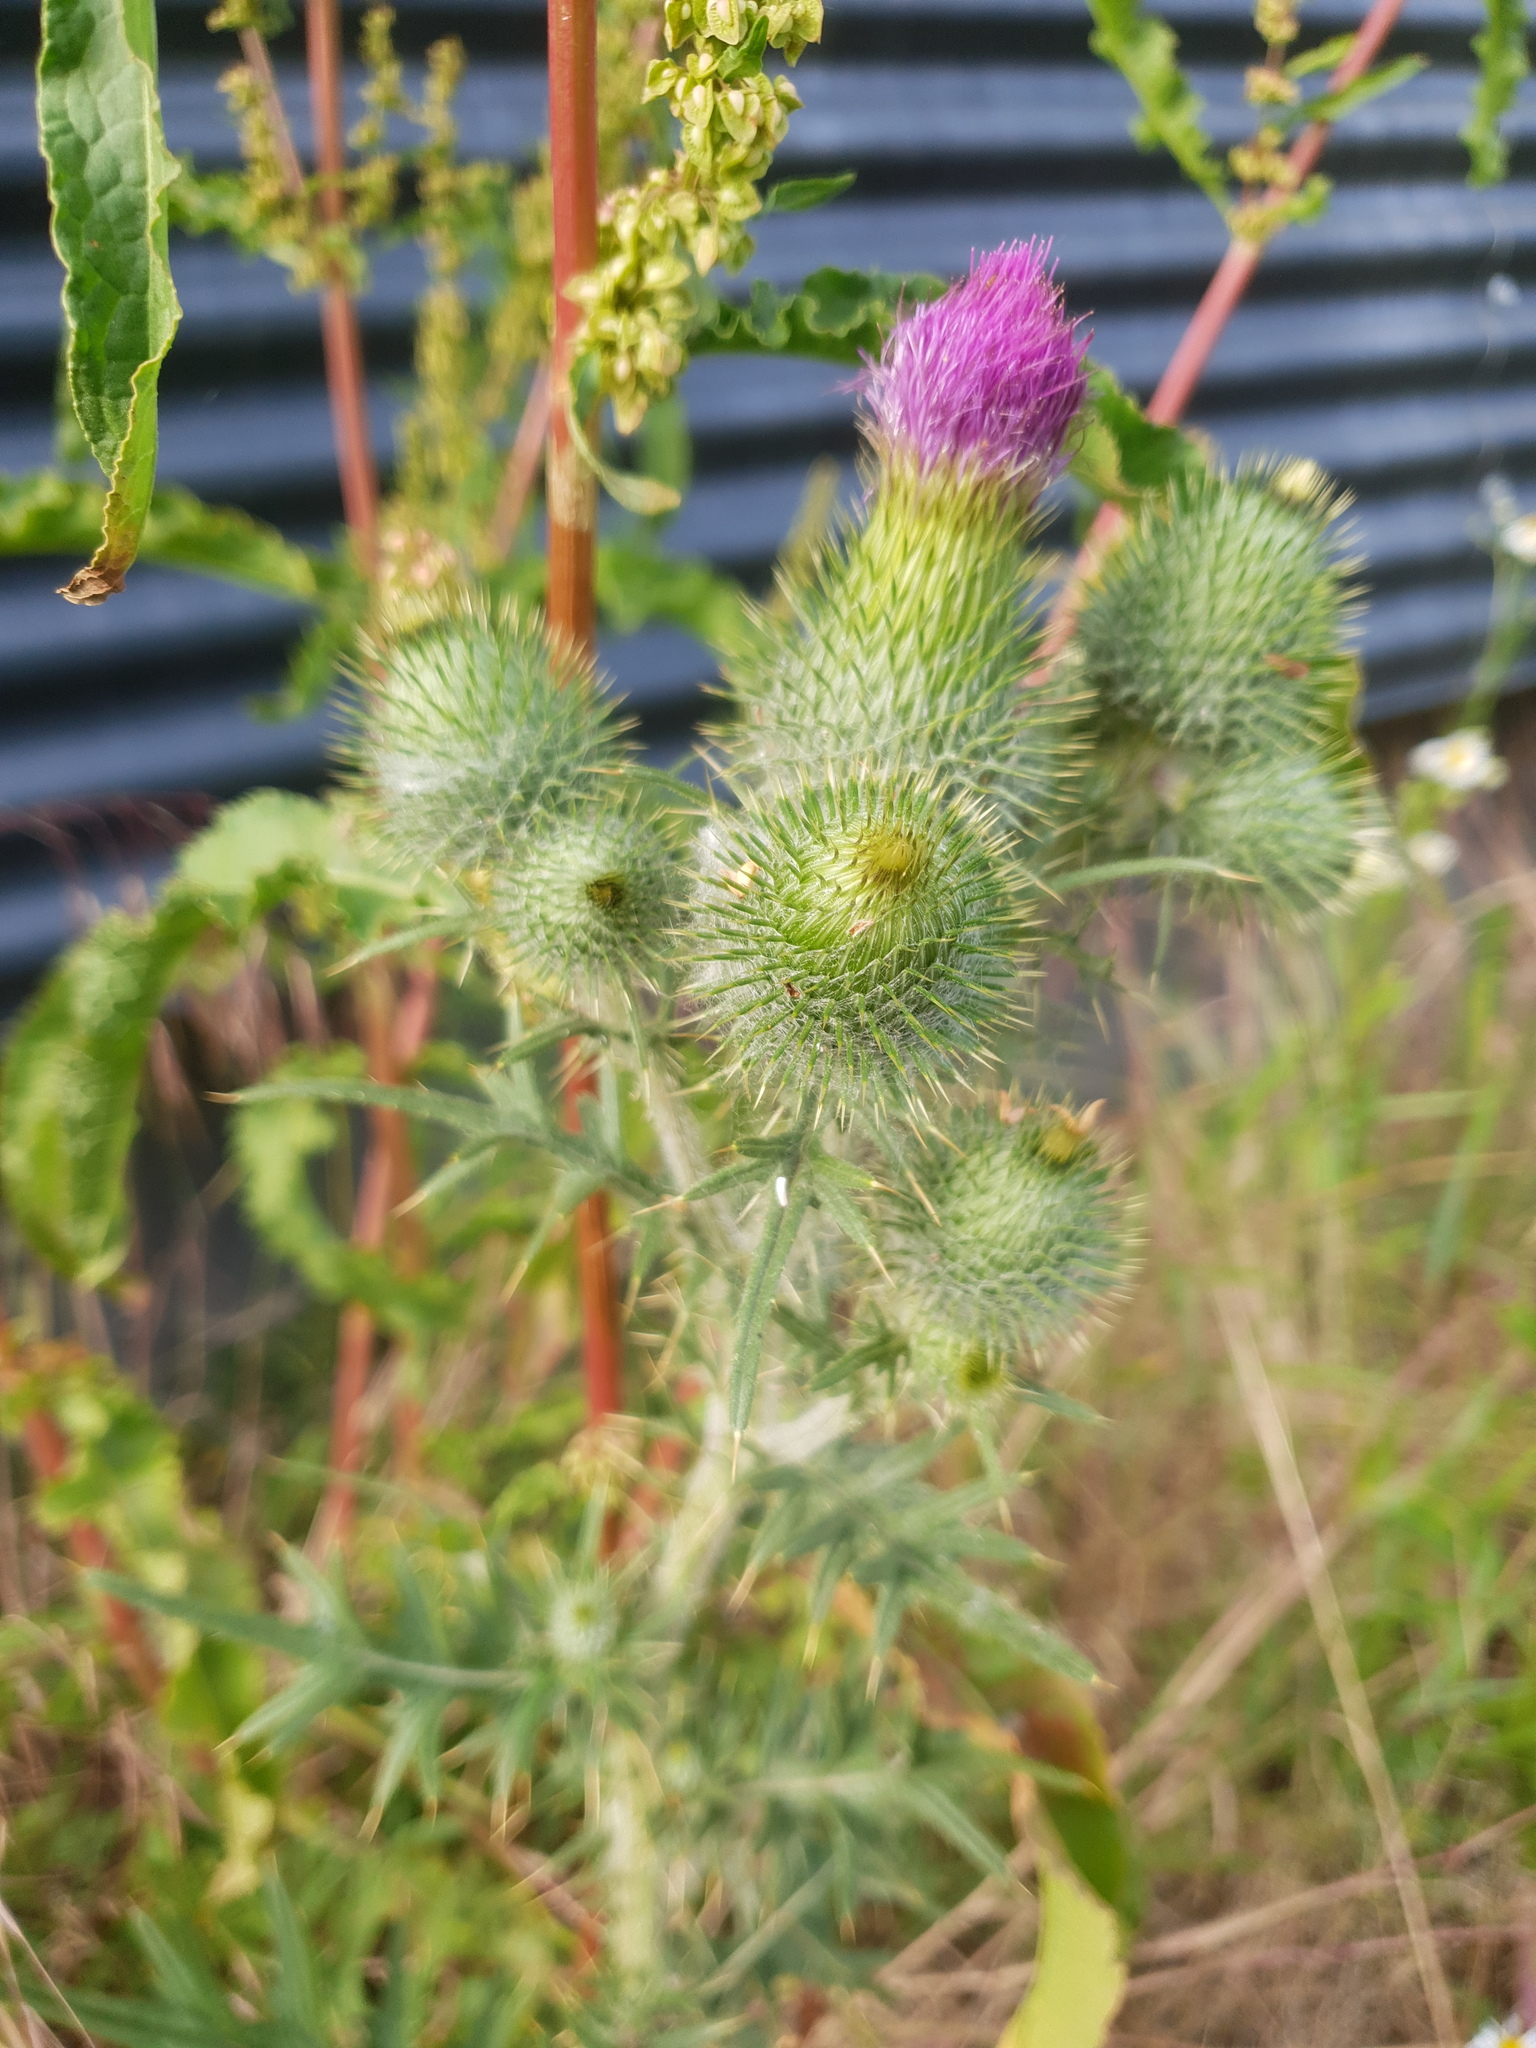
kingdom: Plantae
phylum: Tracheophyta
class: Magnoliopsida
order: Asterales
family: Asteraceae
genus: Cirsium
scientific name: Cirsium vulgare
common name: Bull thistle
